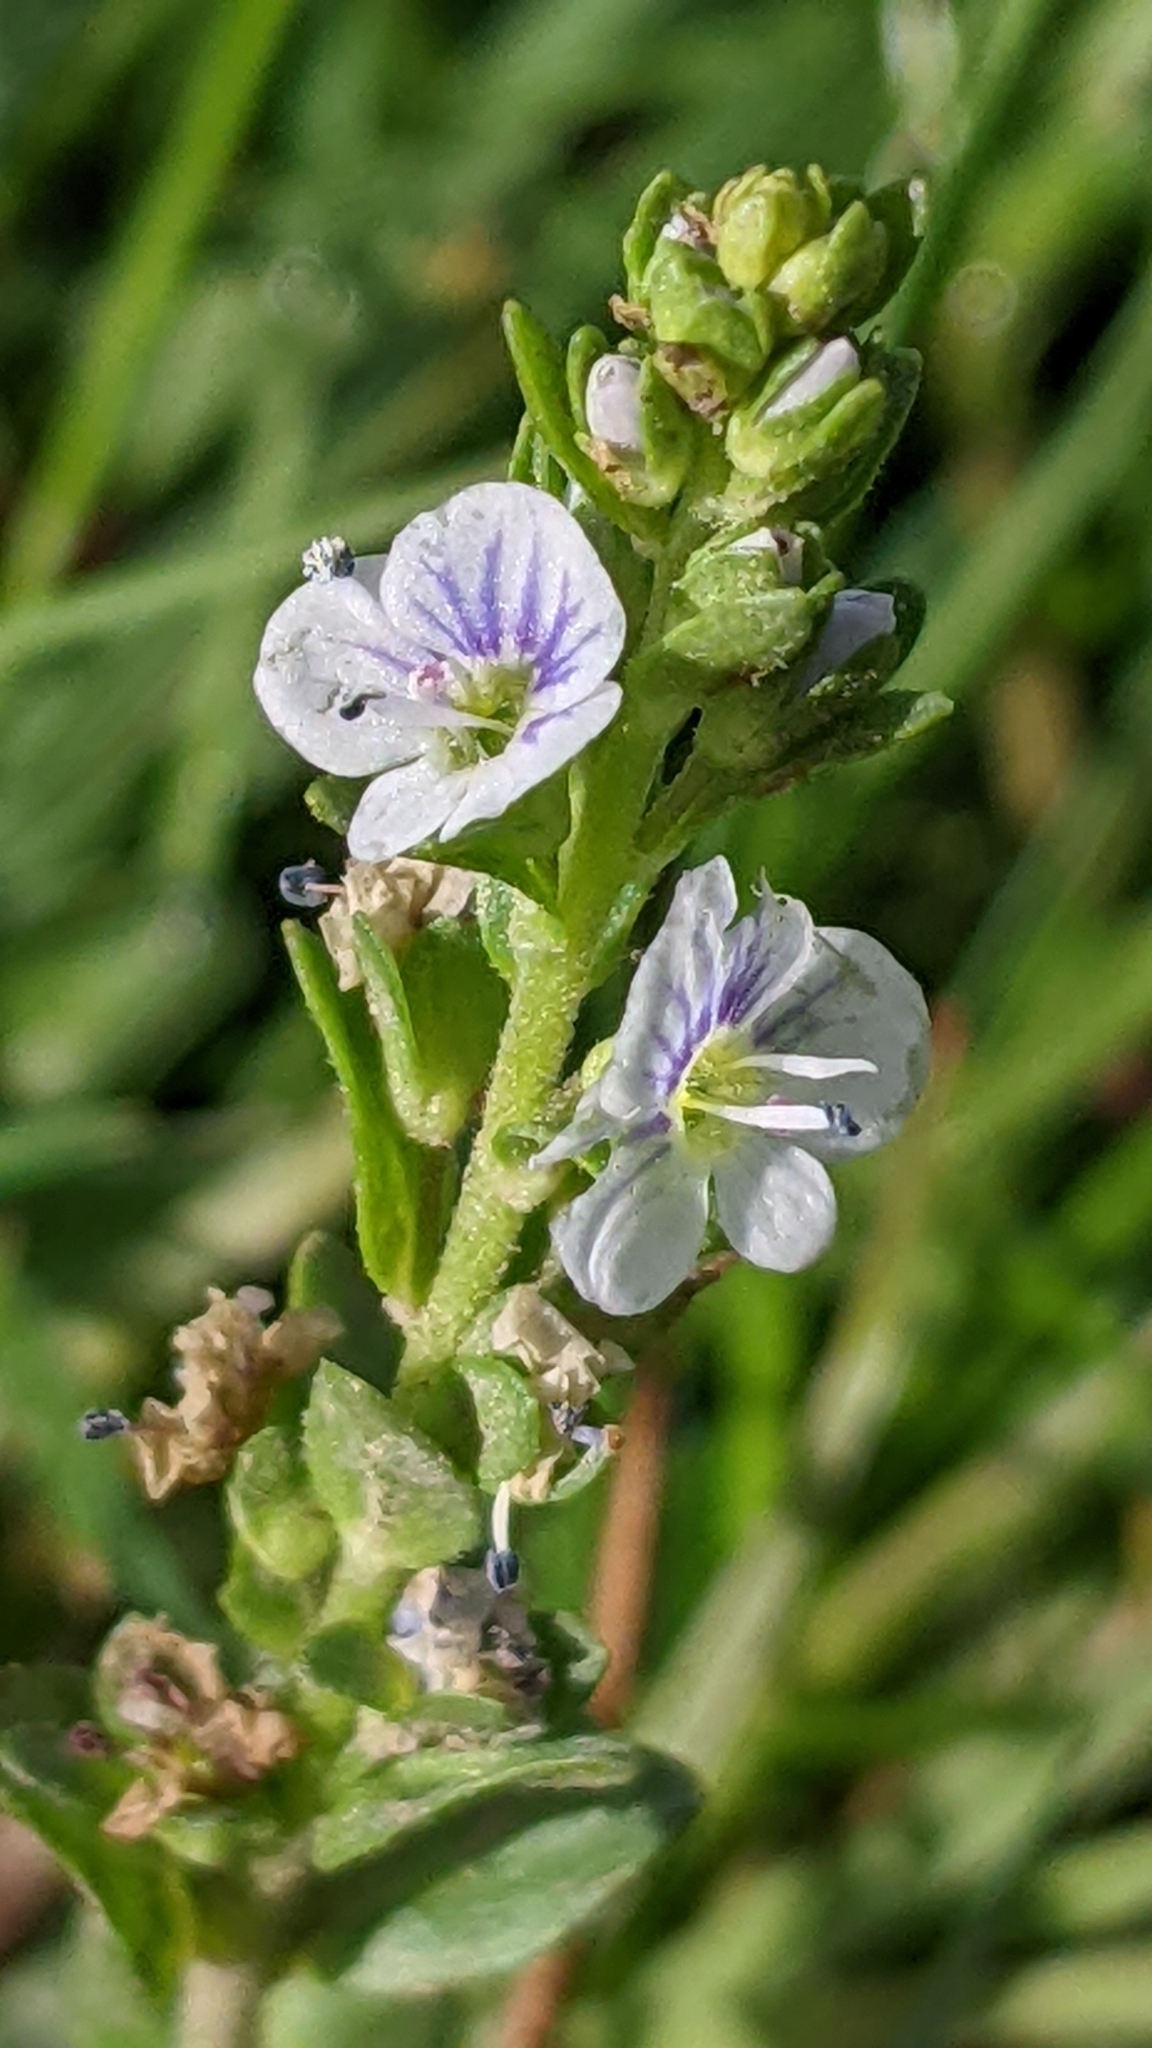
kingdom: Plantae
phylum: Tracheophyta
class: Magnoliopsida
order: Lamiales
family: Plantaginaceae
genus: Veronica
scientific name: Veronica serpyllifolia
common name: Thyme-leaved speedwell
